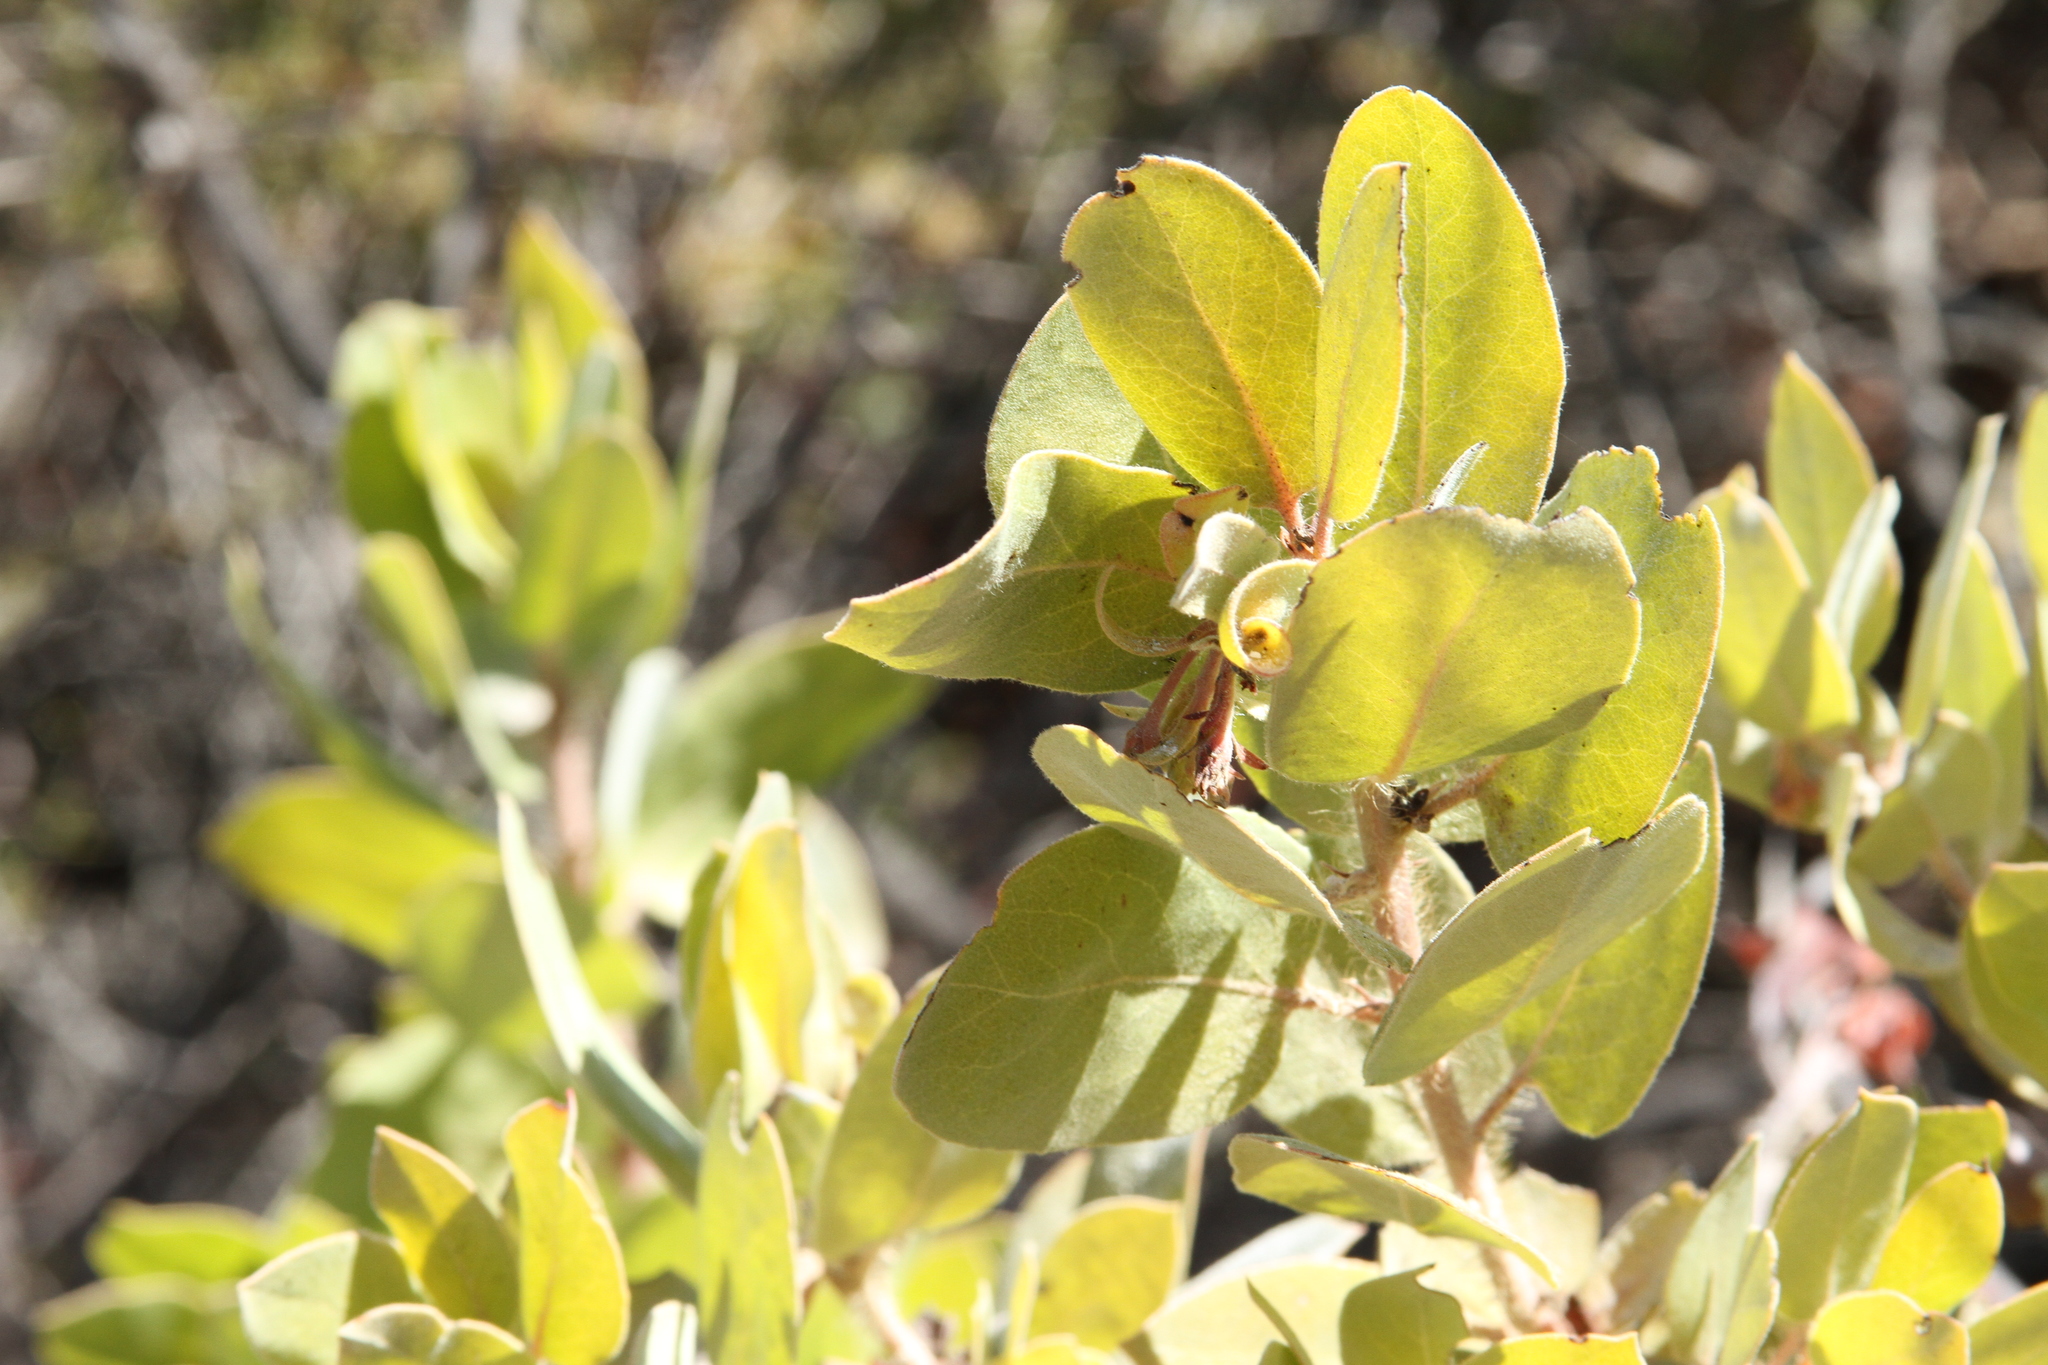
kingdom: Plantae
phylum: Tracheophyta
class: Magnoliopsida
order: Ericales
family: Ericaceae
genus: Arctostaphylos
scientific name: Arctostaphylos crustacea
